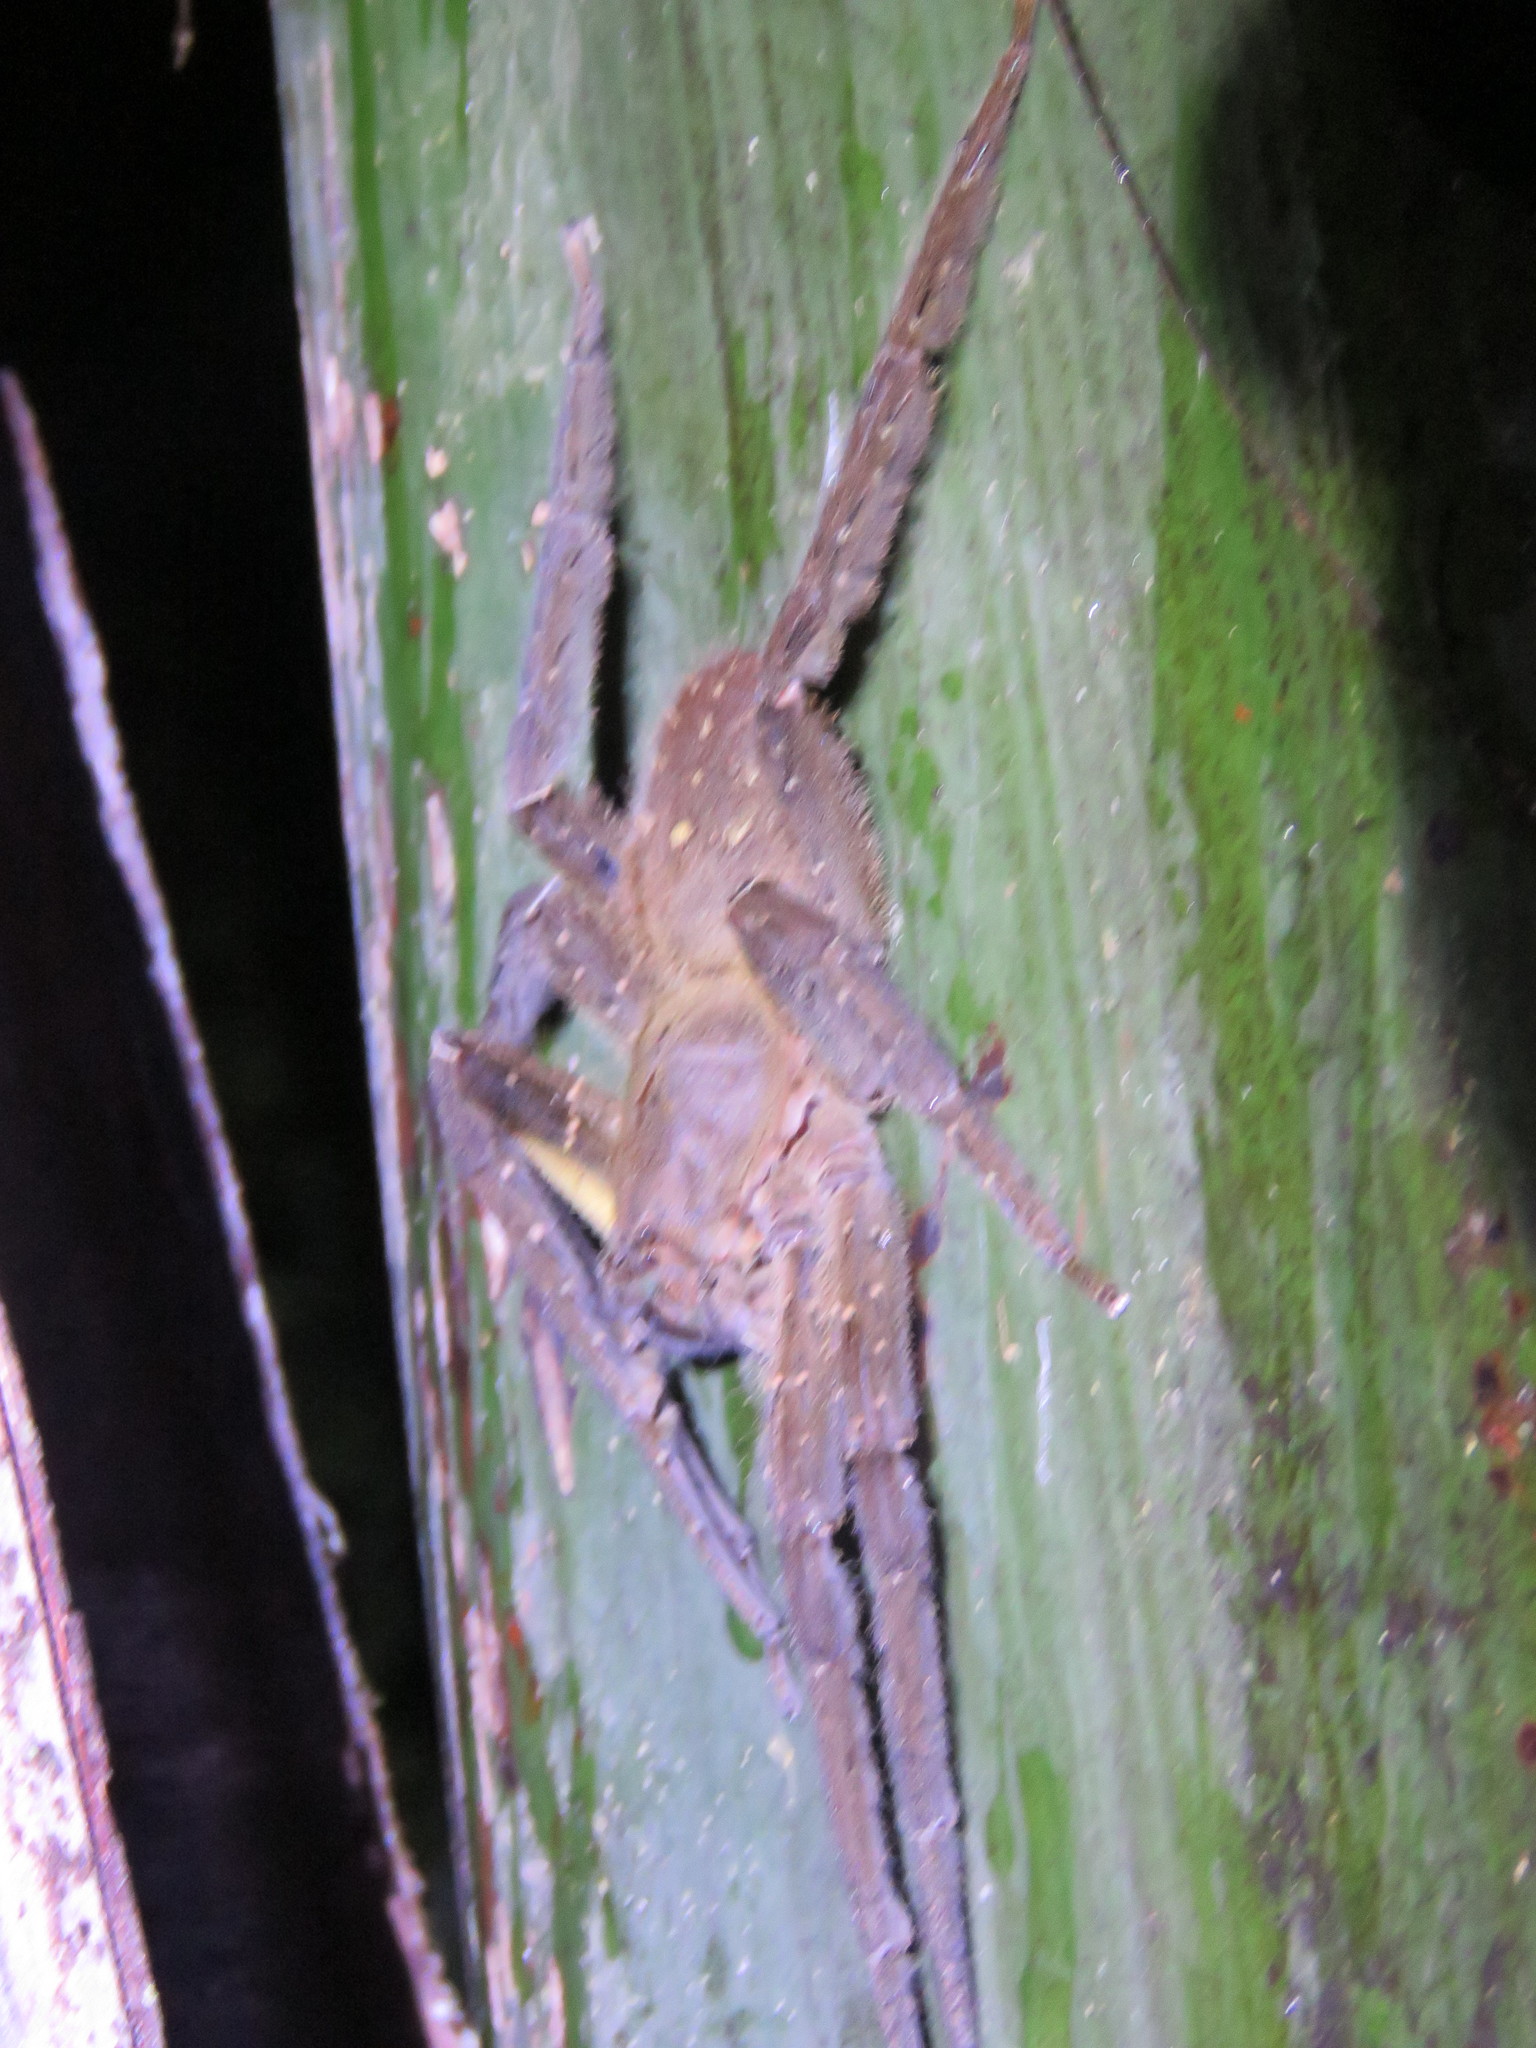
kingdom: Animalia
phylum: Arthropoda
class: Arachnida
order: Araneae
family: Ctenidae
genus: Phoneutria
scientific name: Phoneutria reidyi
